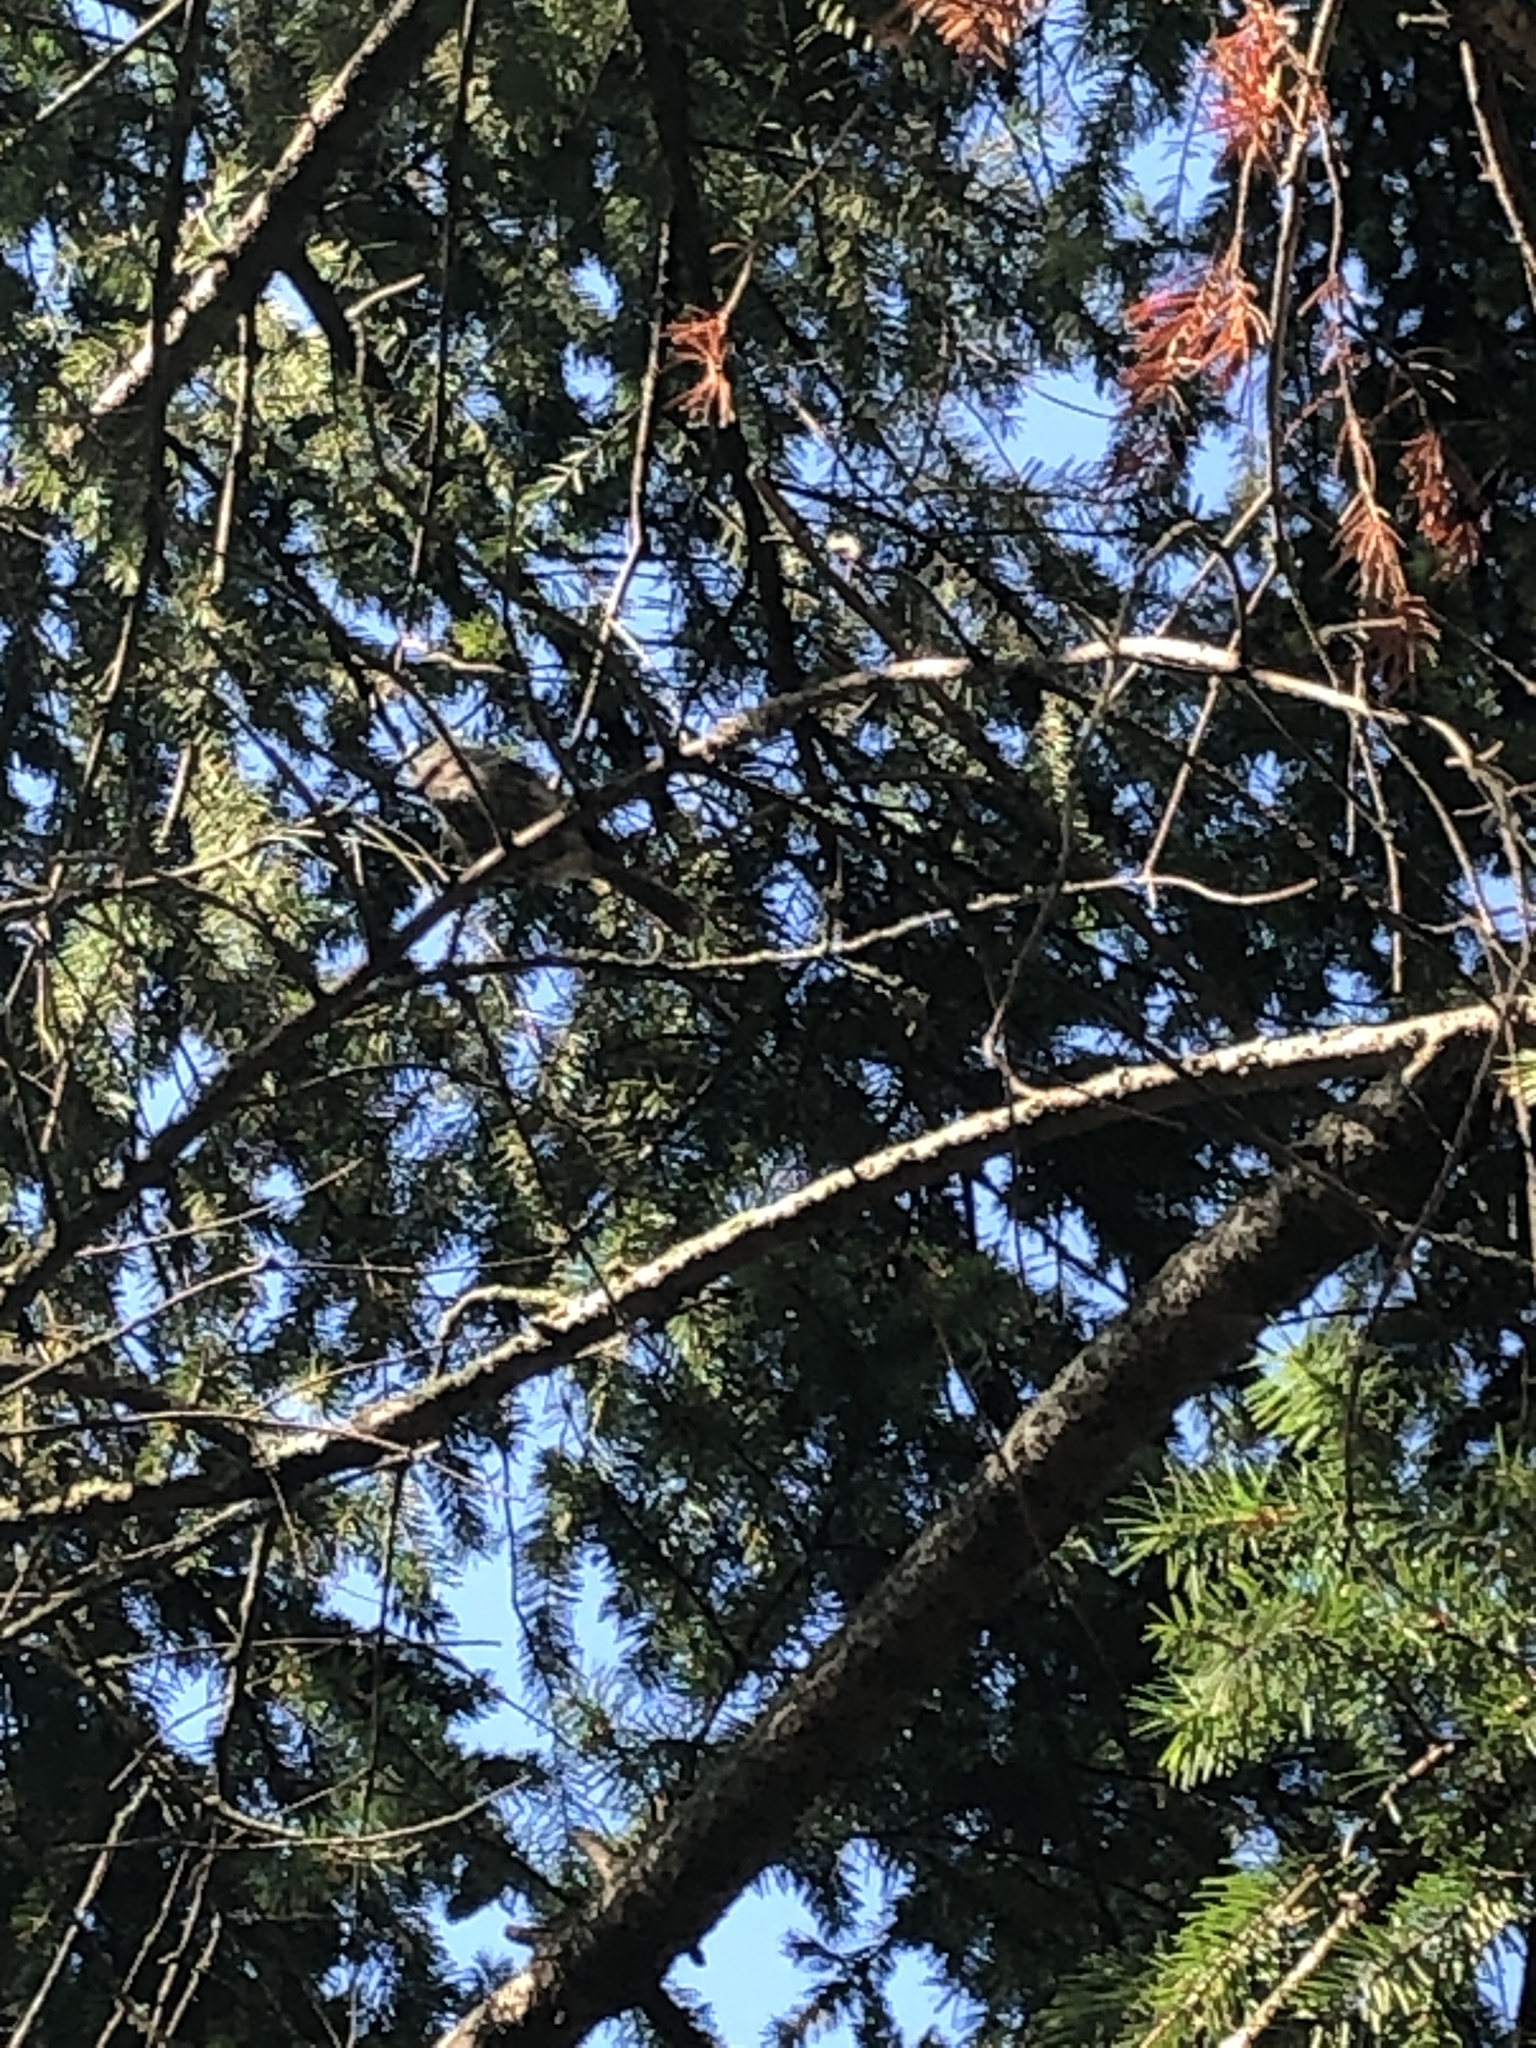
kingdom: Animalia
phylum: Chordata
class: Aves
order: Passeriformes
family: Aegithalidae
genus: Psaltriparus
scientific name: Psaltriparus minimus
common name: American bushtit
